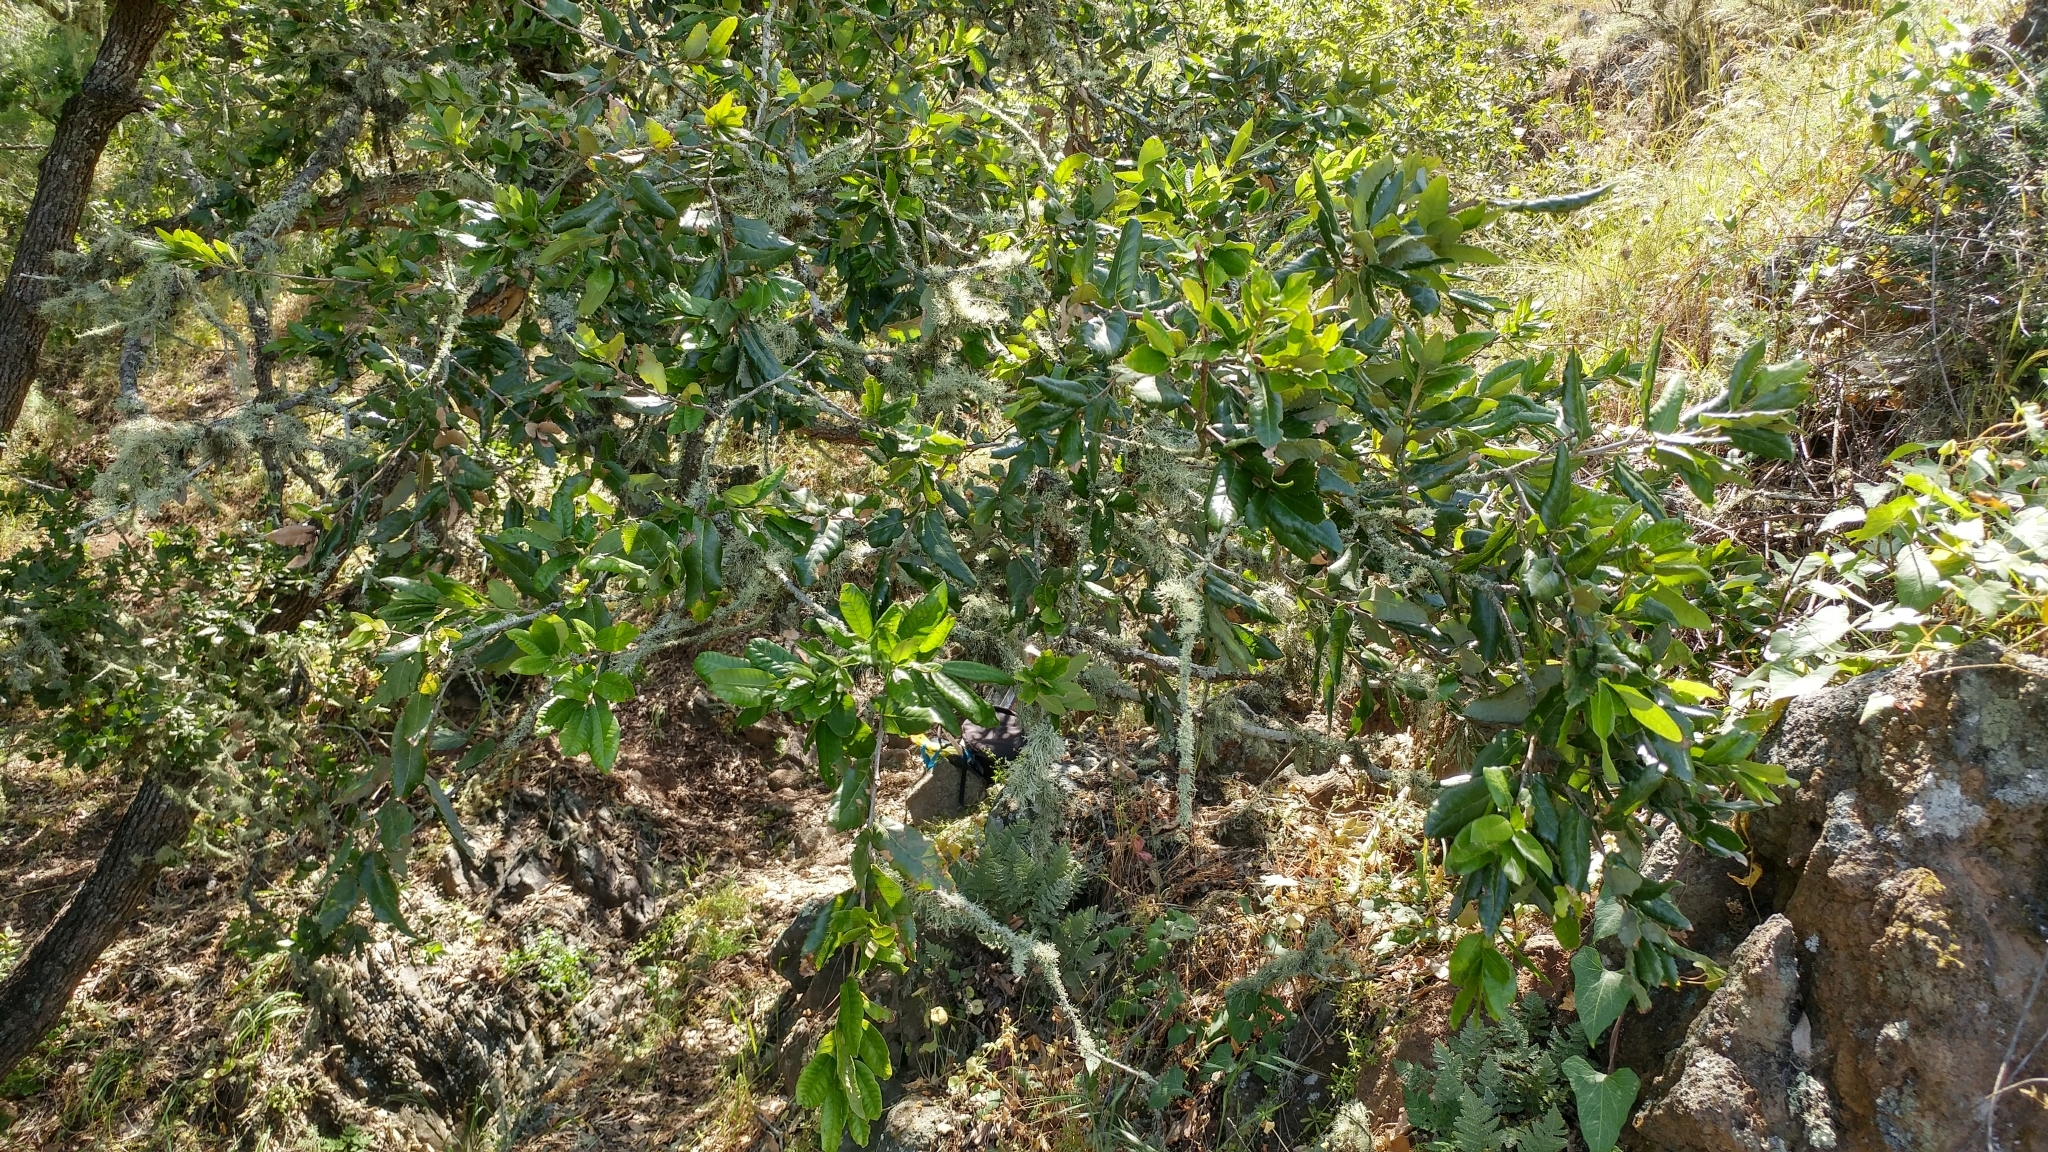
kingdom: Plantae
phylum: Tracheophyta
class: Magnoliopsida
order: Fagales
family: Fagaceae
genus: Quercus
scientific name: Quercus tomentella
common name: Island oak
